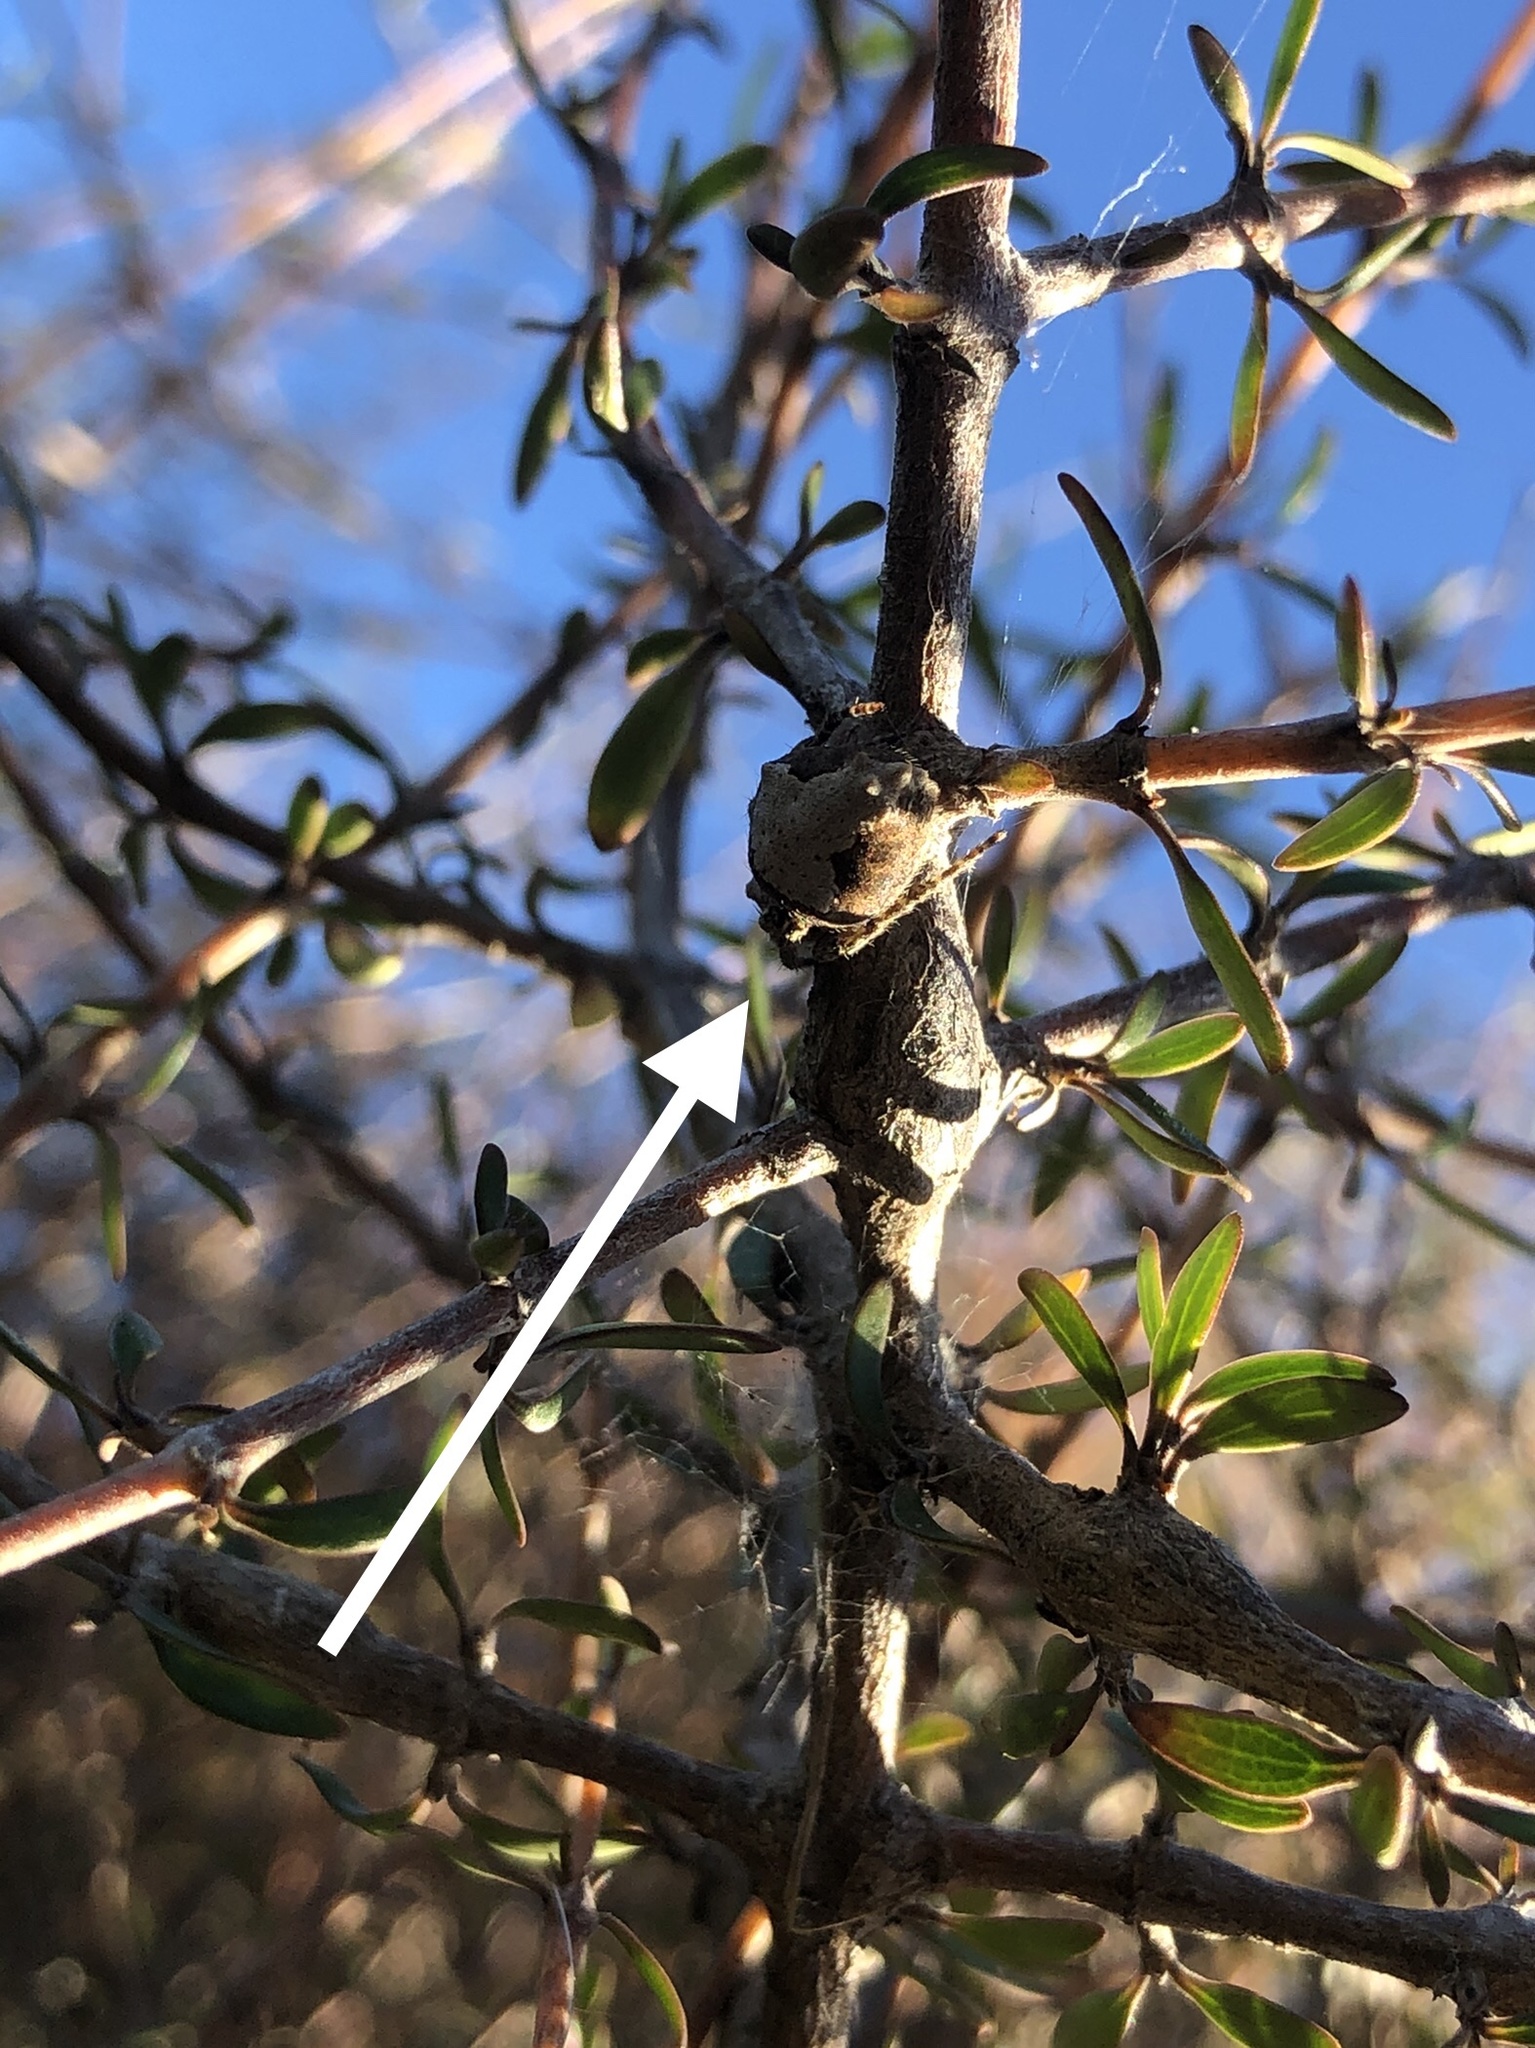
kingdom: Animalia
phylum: Arthropoda
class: Arachnida
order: Araneae
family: Araneidae
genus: Eriophora
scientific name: Eriophora pustulosa
